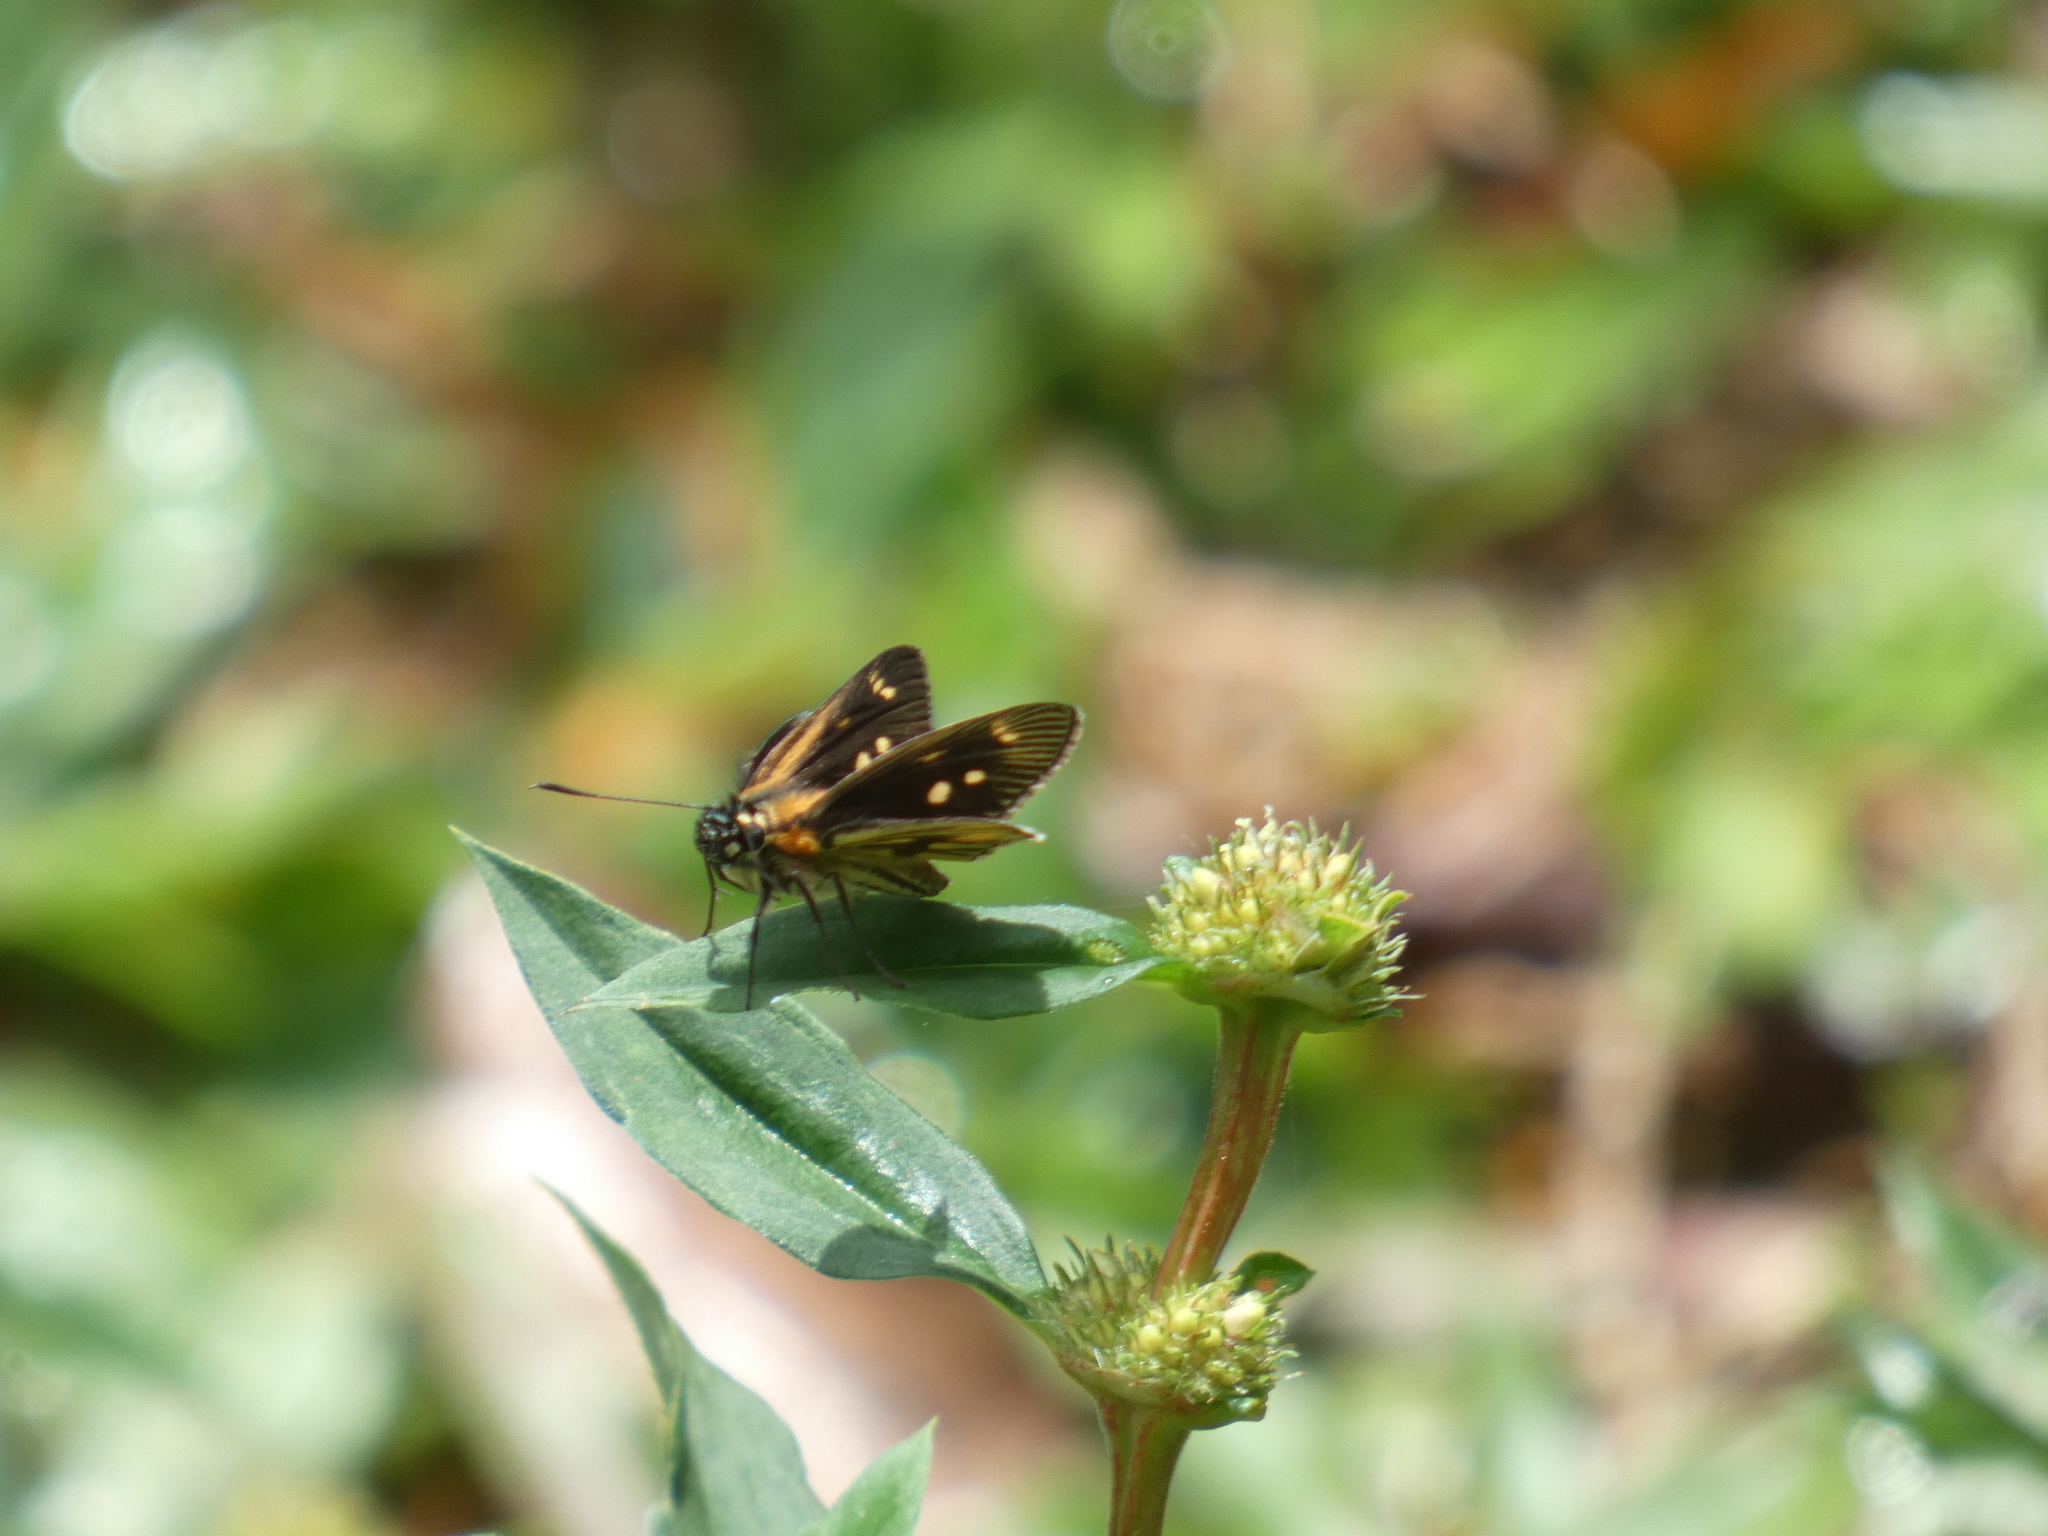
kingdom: Animalia
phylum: Arthropoda
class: Insecta
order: Lepidoptera
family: Hesperiidae
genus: Vehilius
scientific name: Vehilius clavicula
